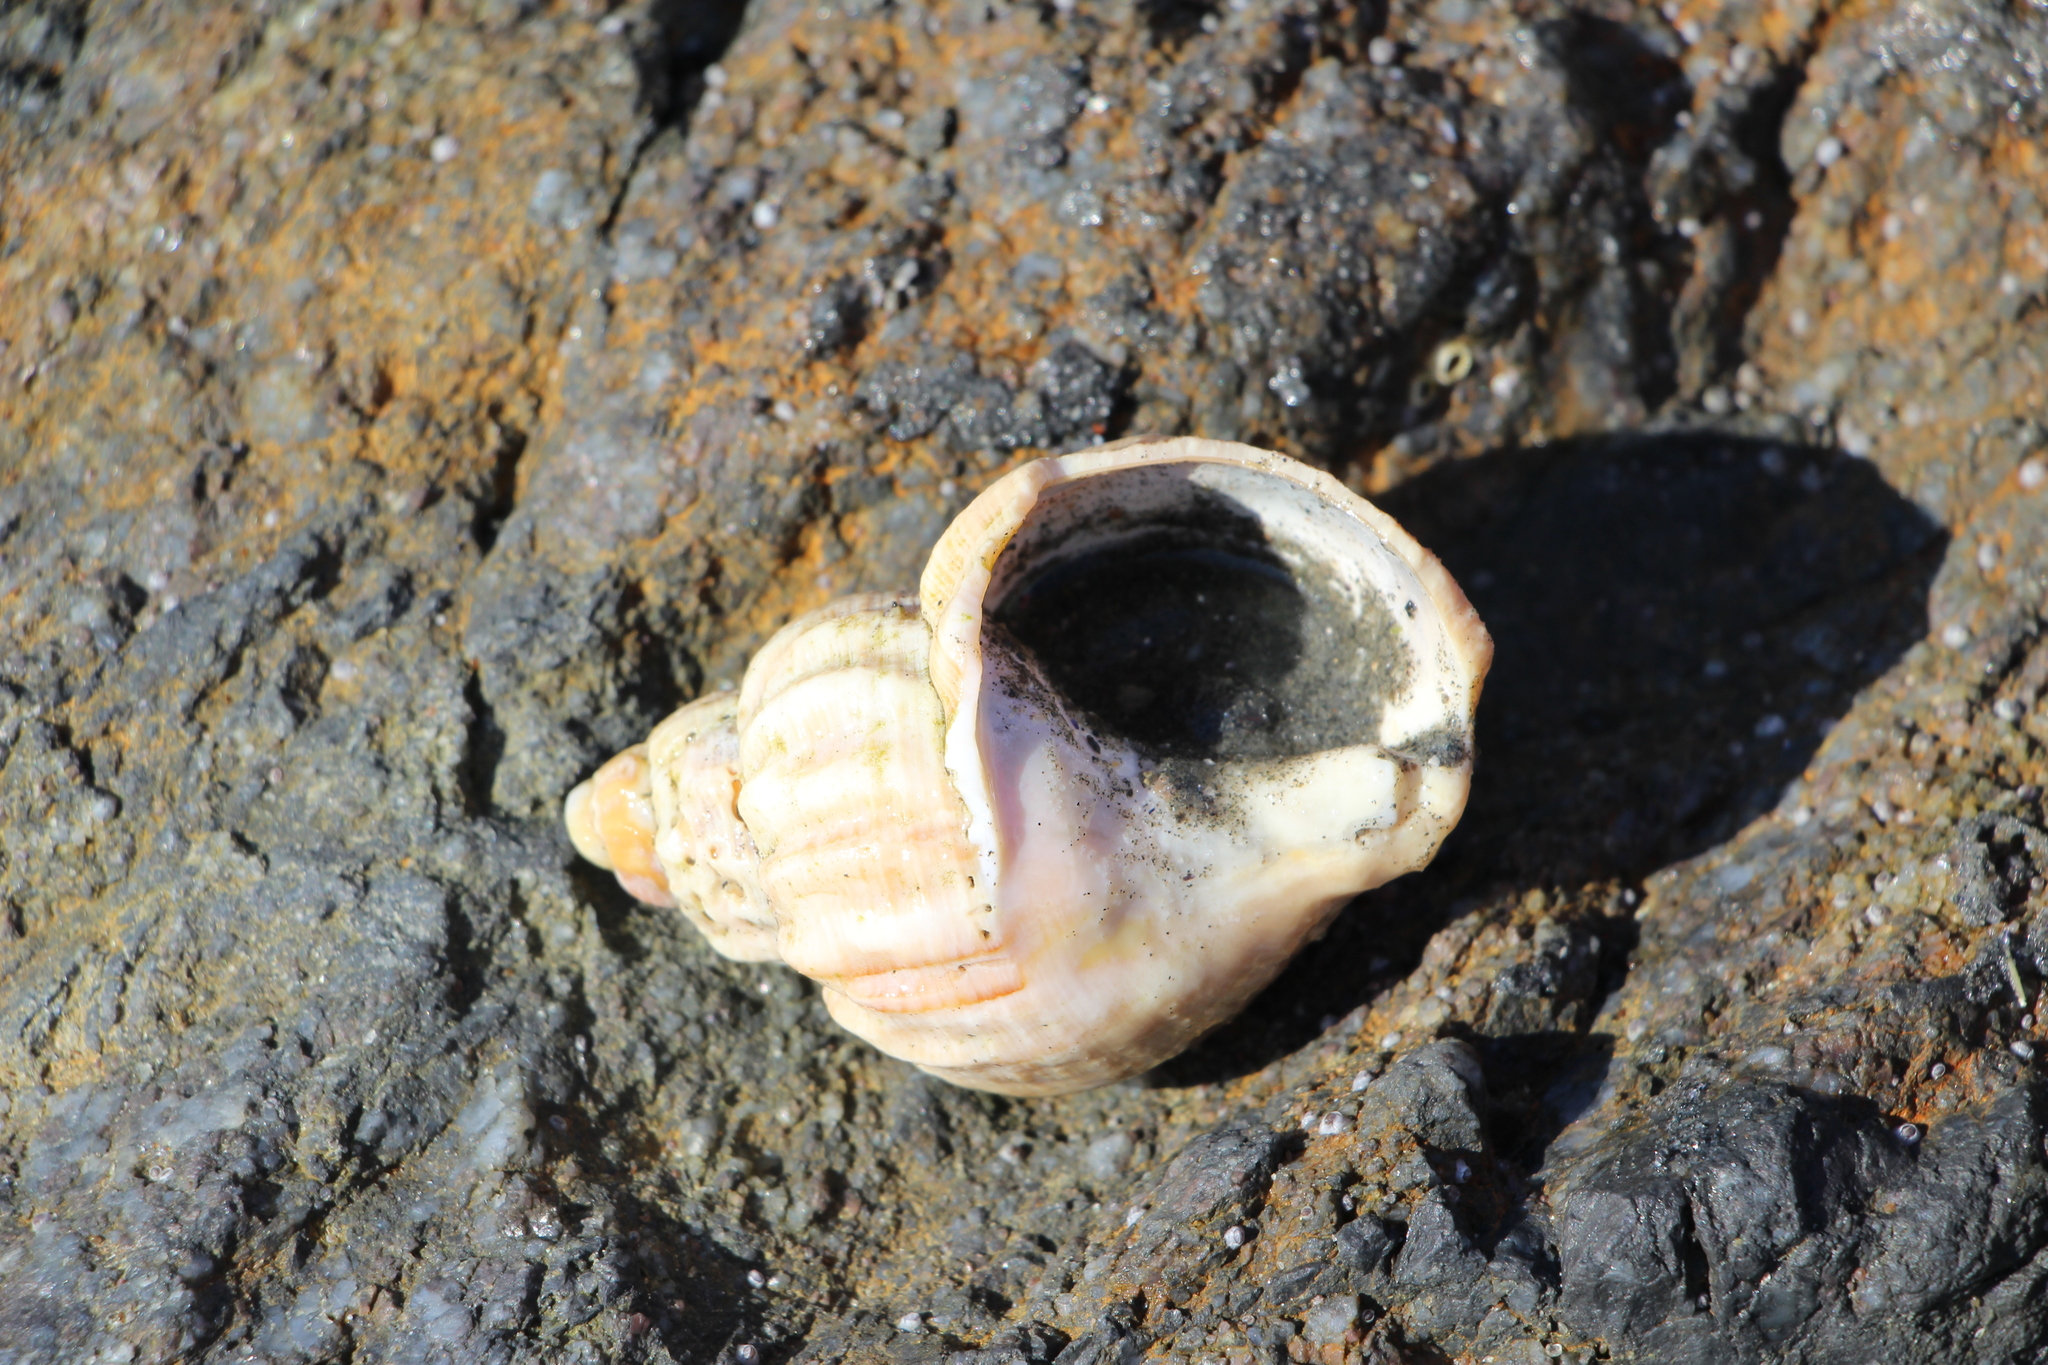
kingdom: Animalia
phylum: Mollusca
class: Gastropoda
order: Neogastropoda
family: Buccinidae
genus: Buccinum
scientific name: Buccinum undatum
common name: Common whelk
